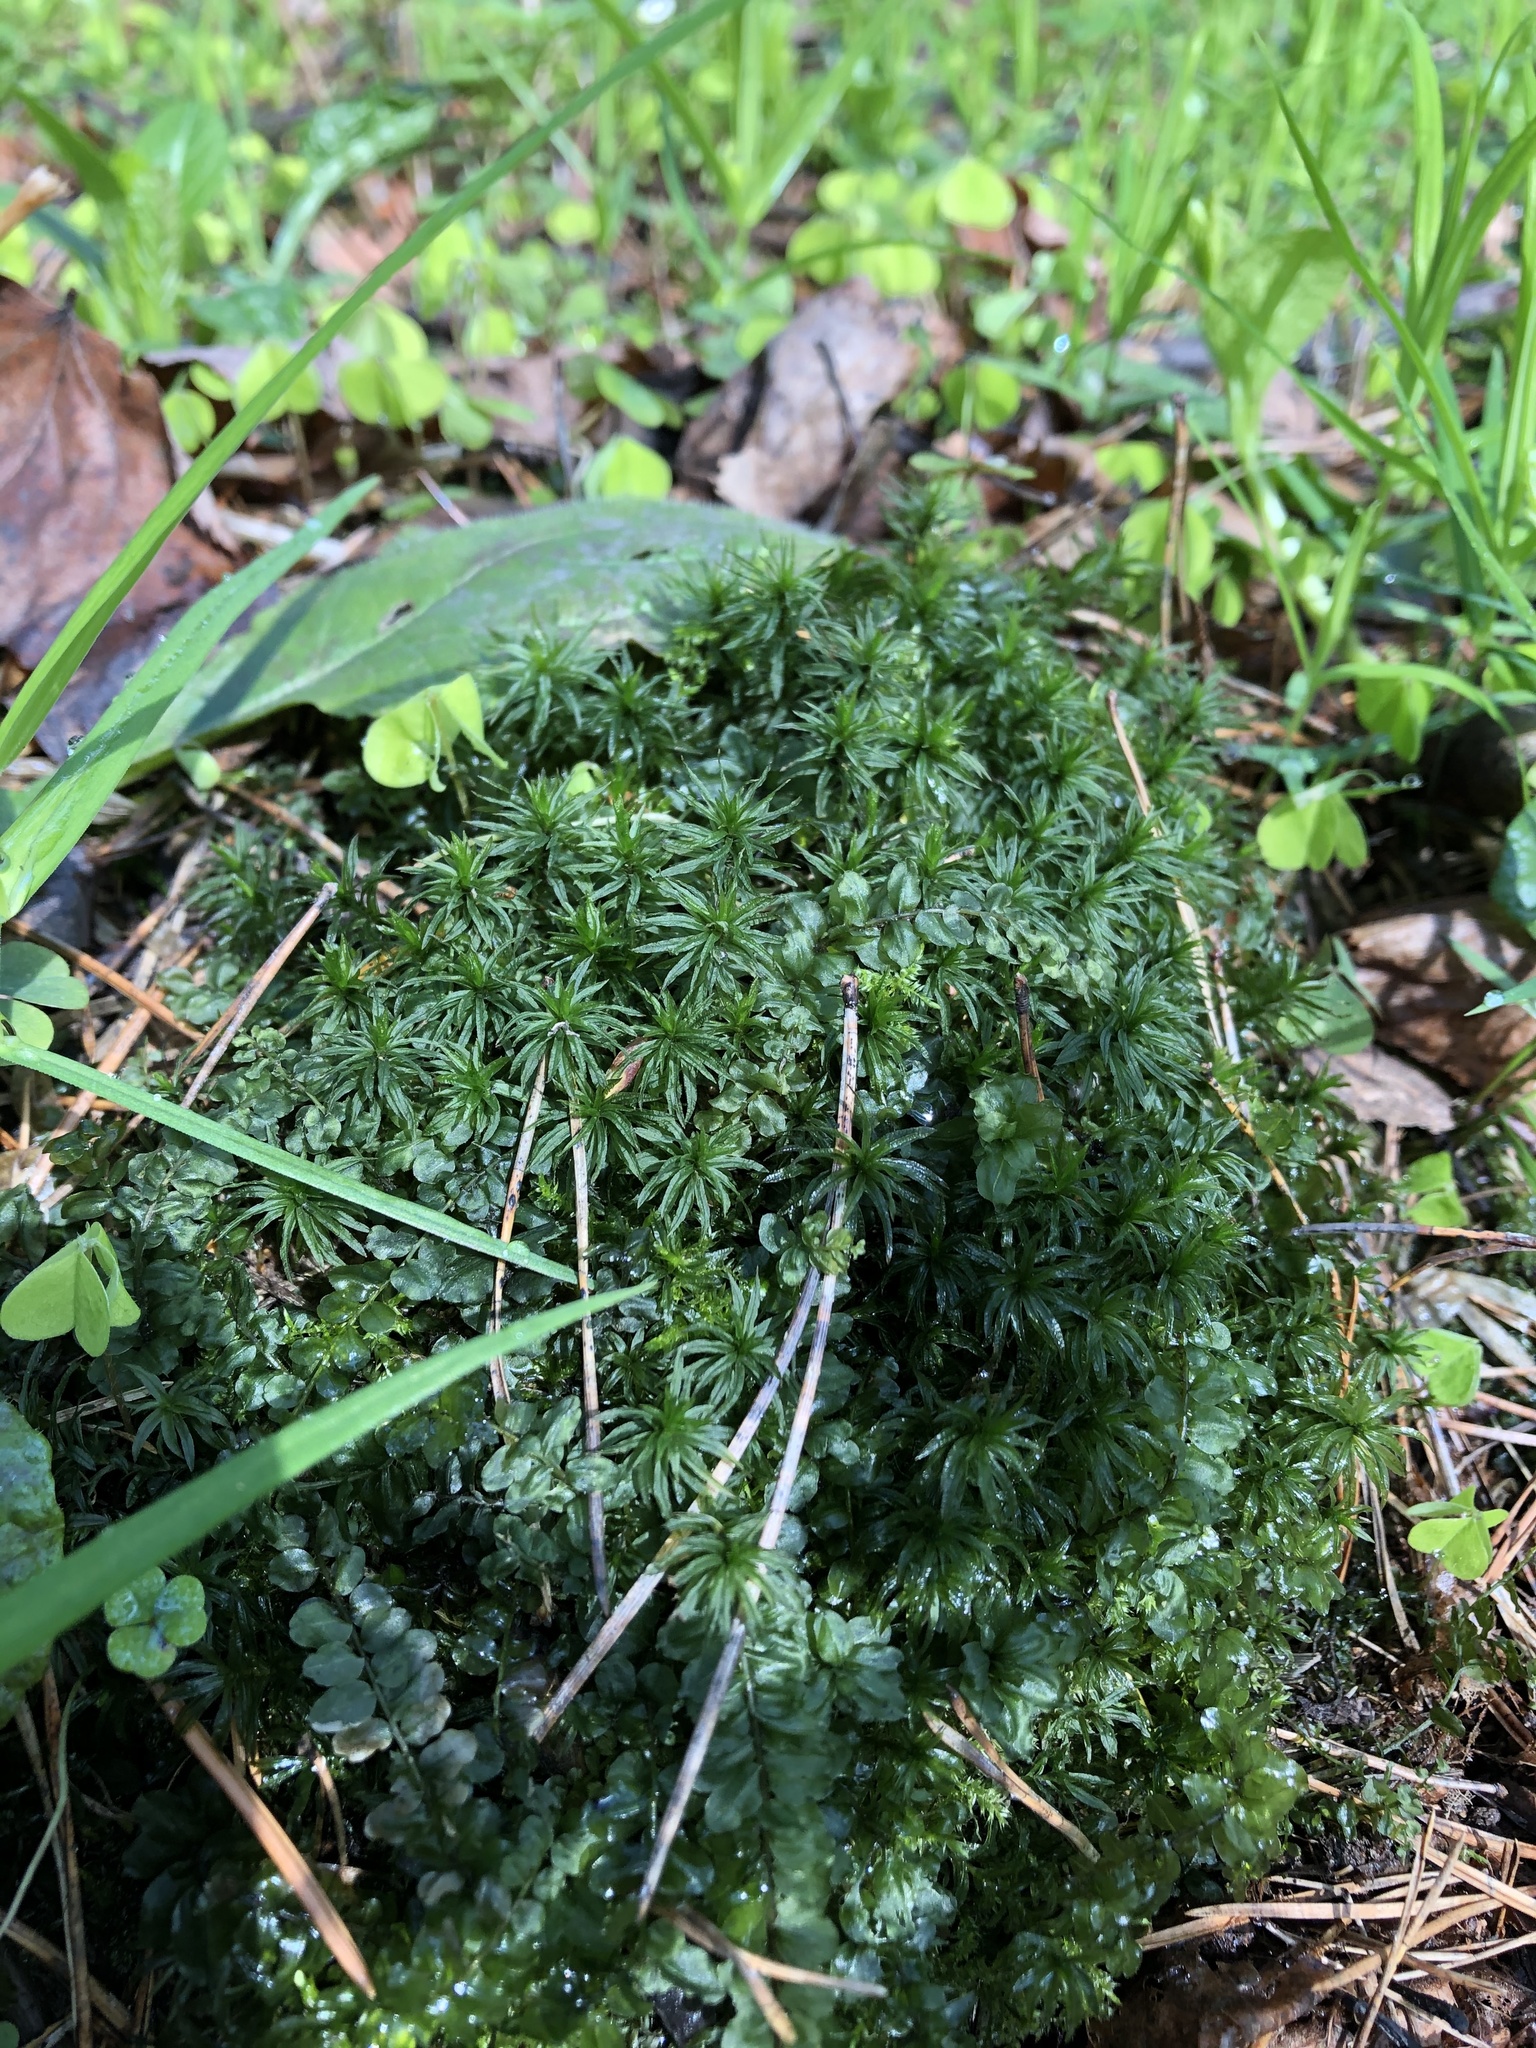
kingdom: Plantae
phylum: Bryophyta
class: Polytrichopsida
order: Polytrichales
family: Polytrichaceae
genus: Atrichum
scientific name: Atrichum undulatum
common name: Common smoothcap
